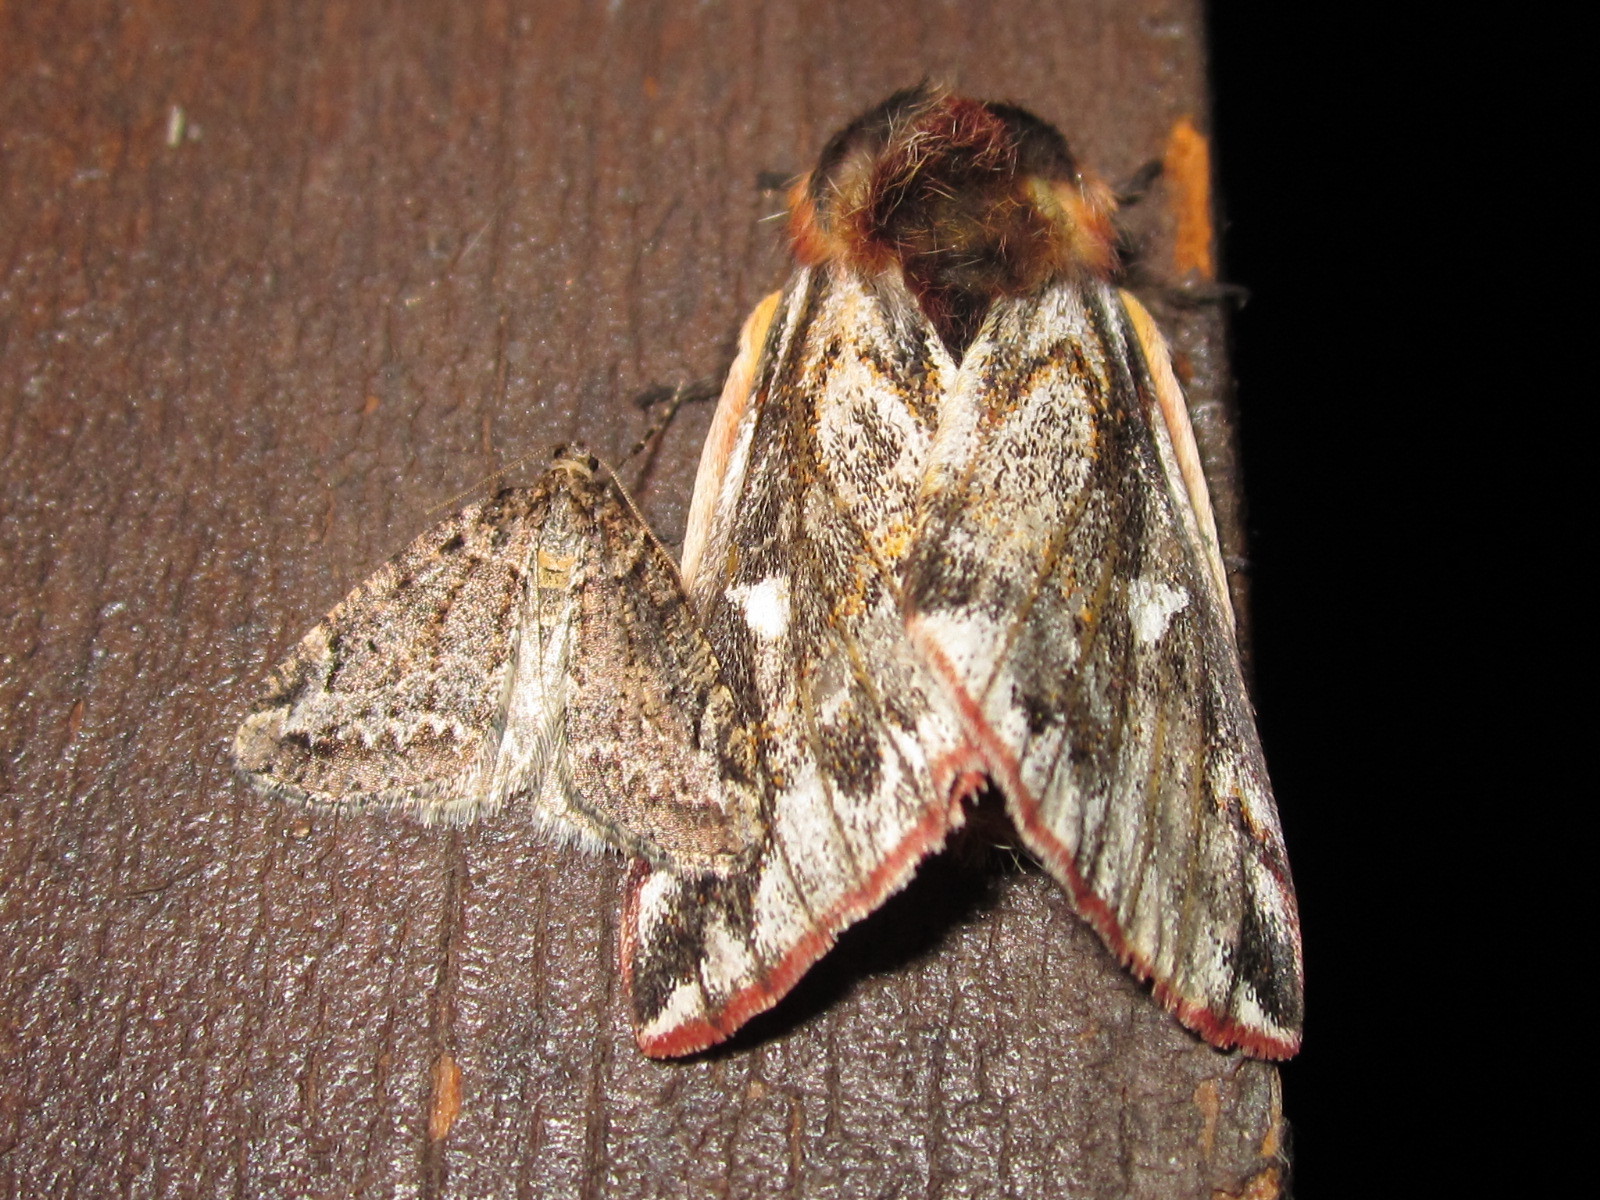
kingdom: Animalia
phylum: Arthropoda
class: Insecta
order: Lepidoptera
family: Saturniidae
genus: Ormiscodes
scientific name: Ormiscodes penai
